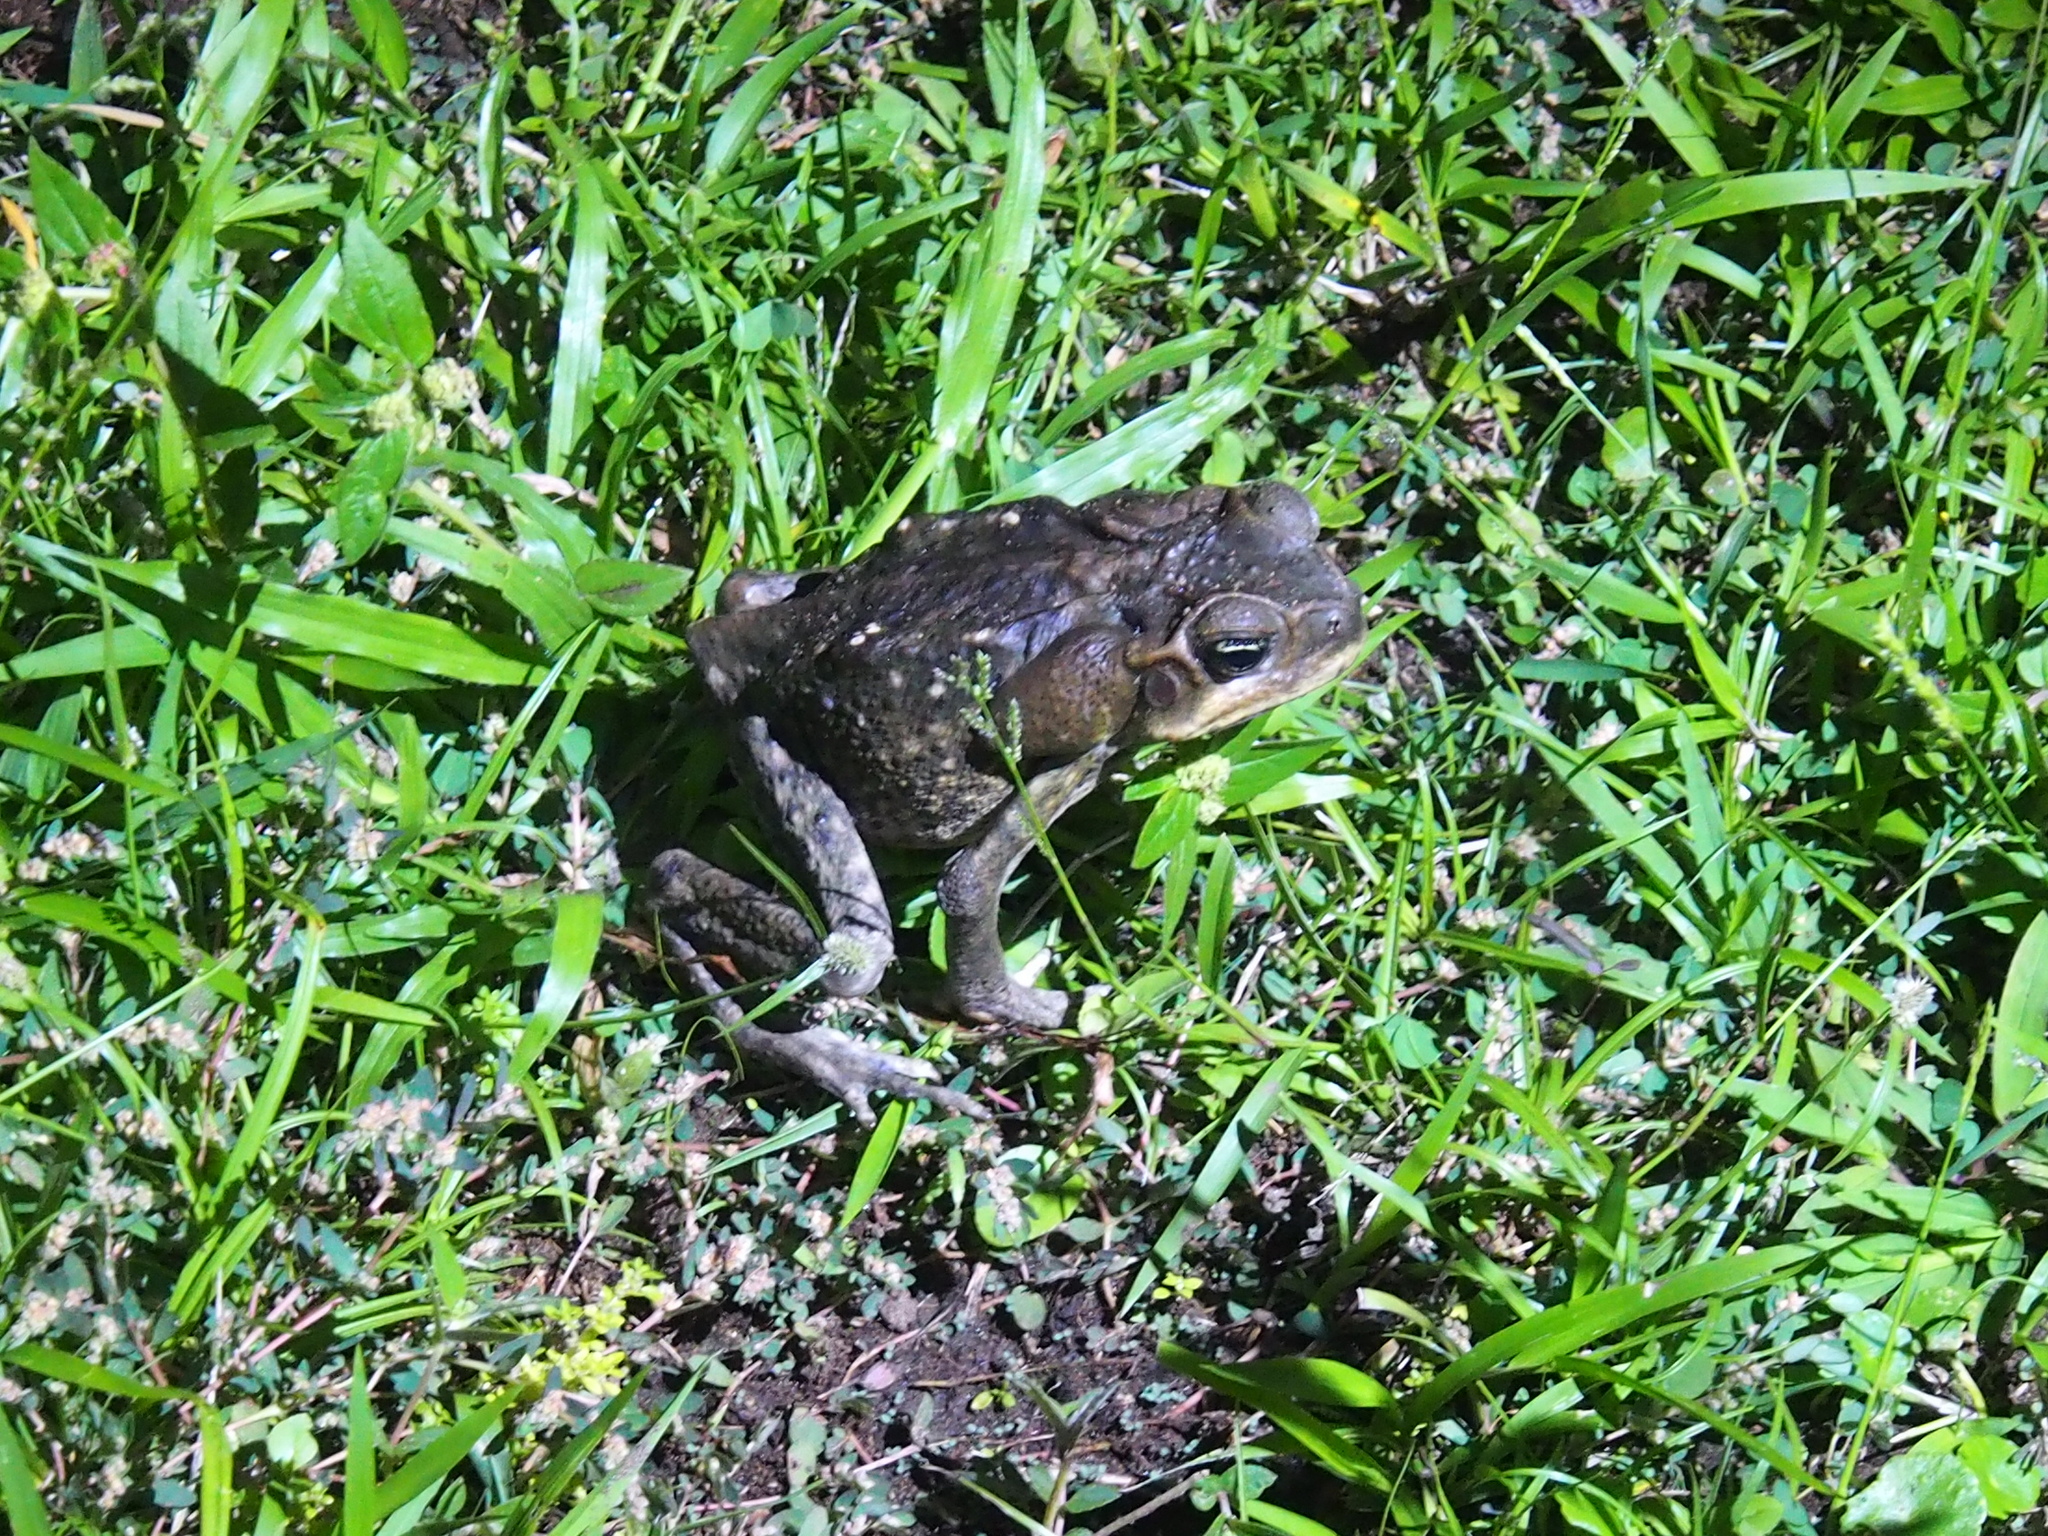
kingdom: Animalia
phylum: Chordata
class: Amphibia
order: Anura
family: Bufonidae
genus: Rhinella
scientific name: Rhinella horribilis
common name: Mesoamerican cane toad
